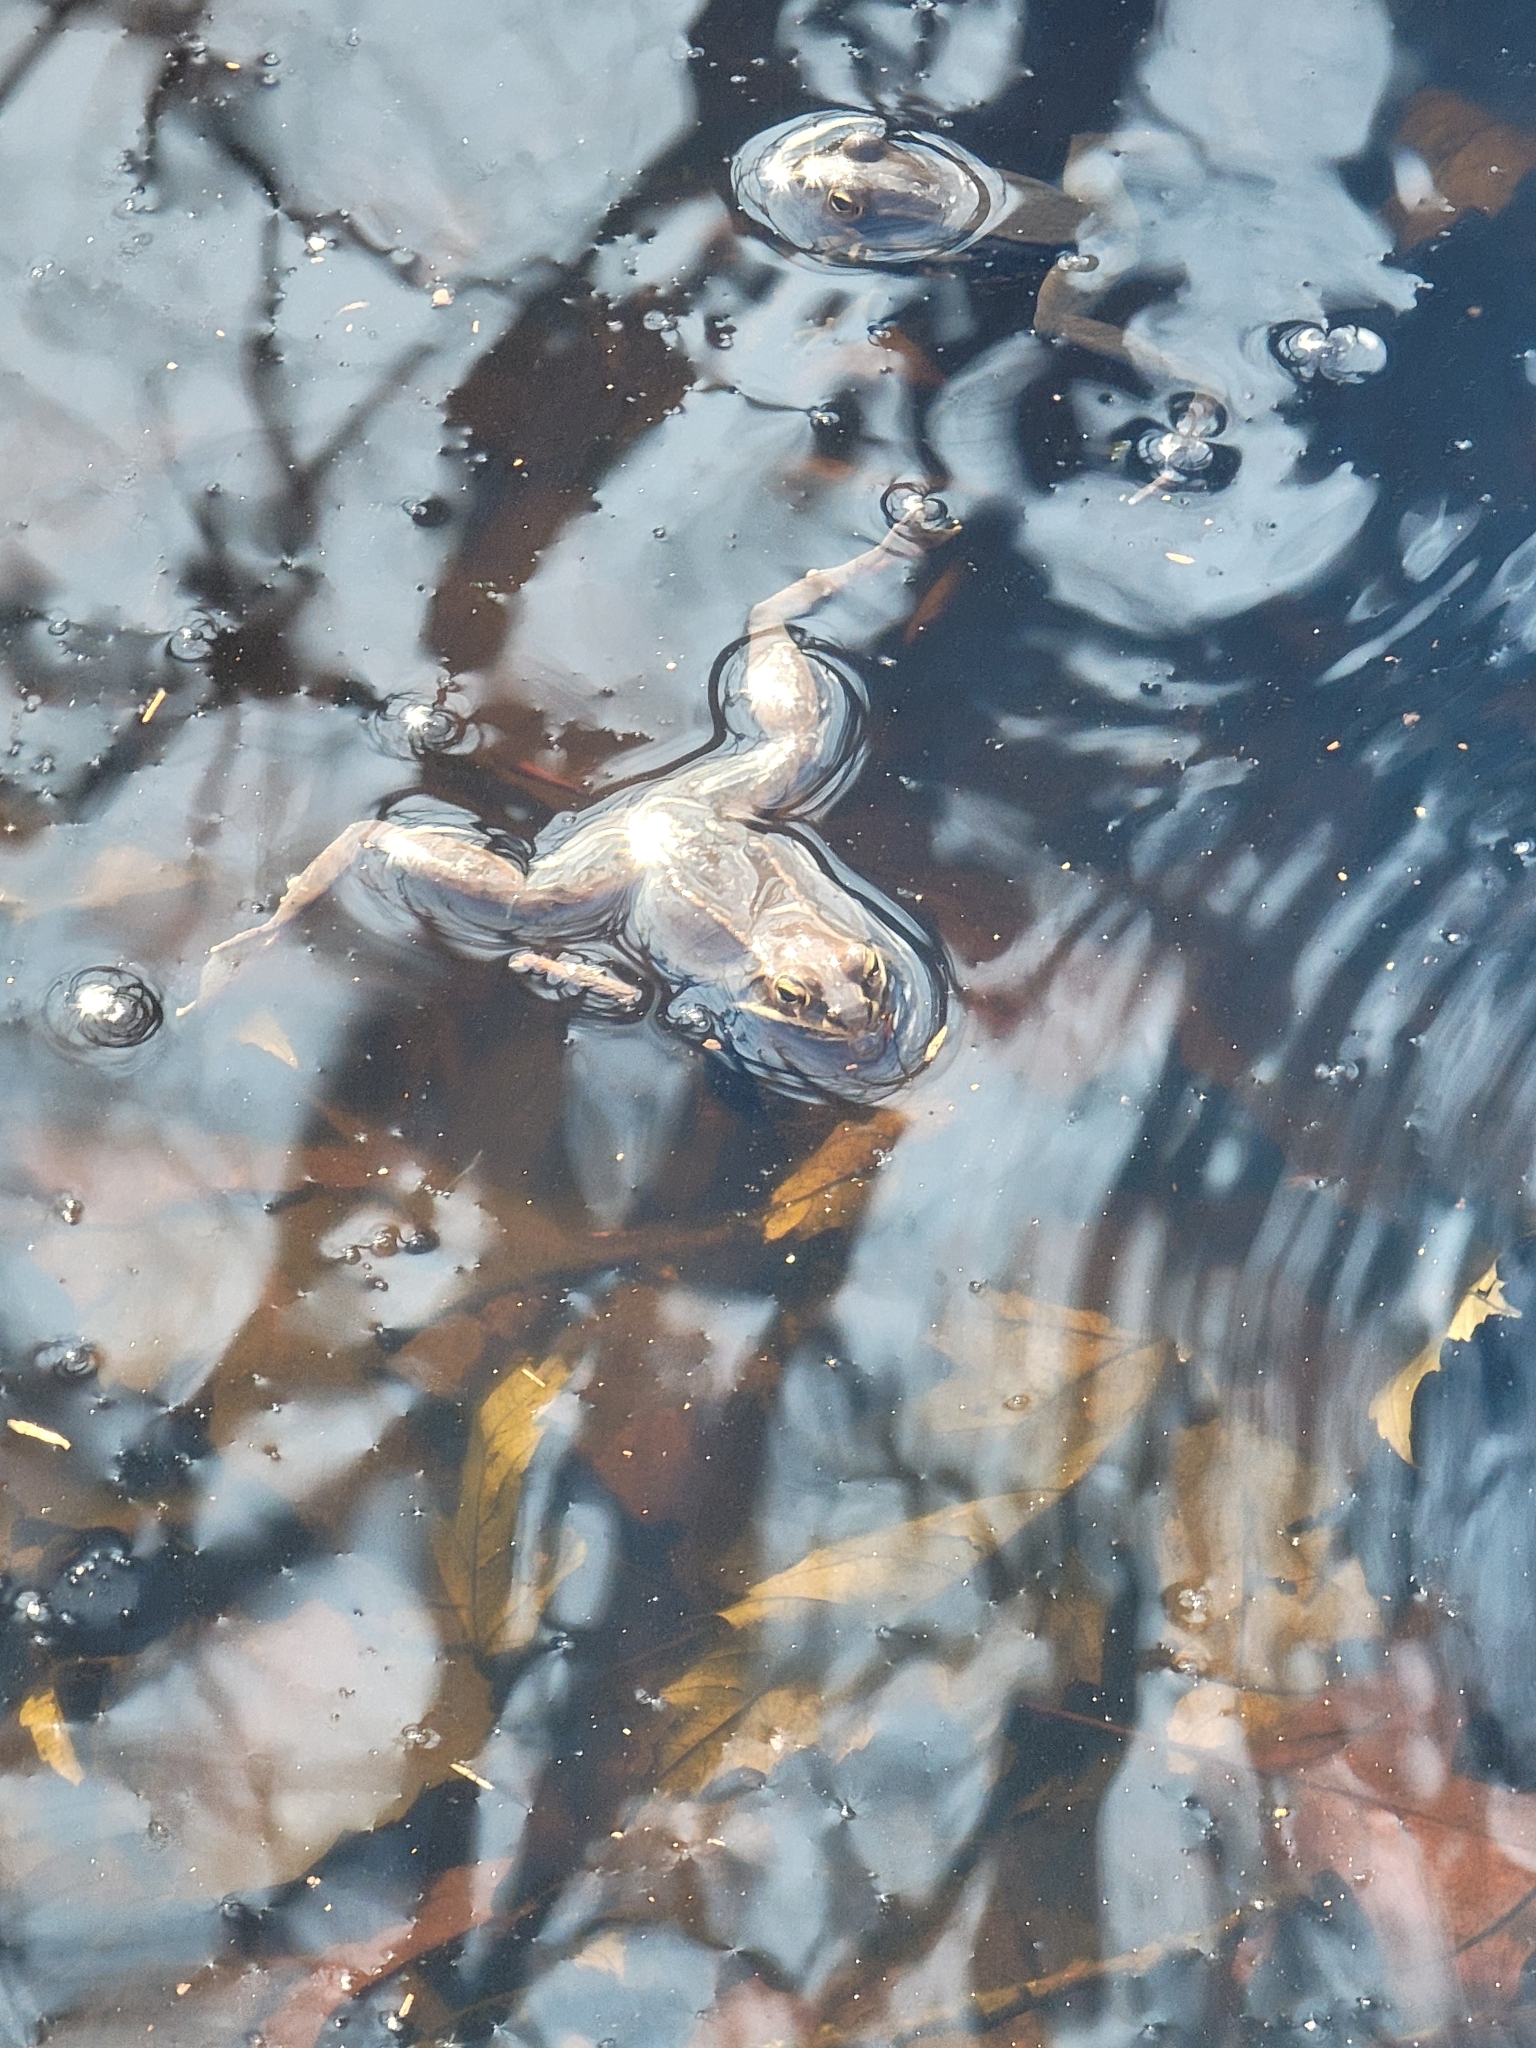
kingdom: Animalia
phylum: Chordata
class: Amphibia
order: Anura
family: Ranidae
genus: Lithobates
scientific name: Lithobates sylvaticus
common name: Wood frog
